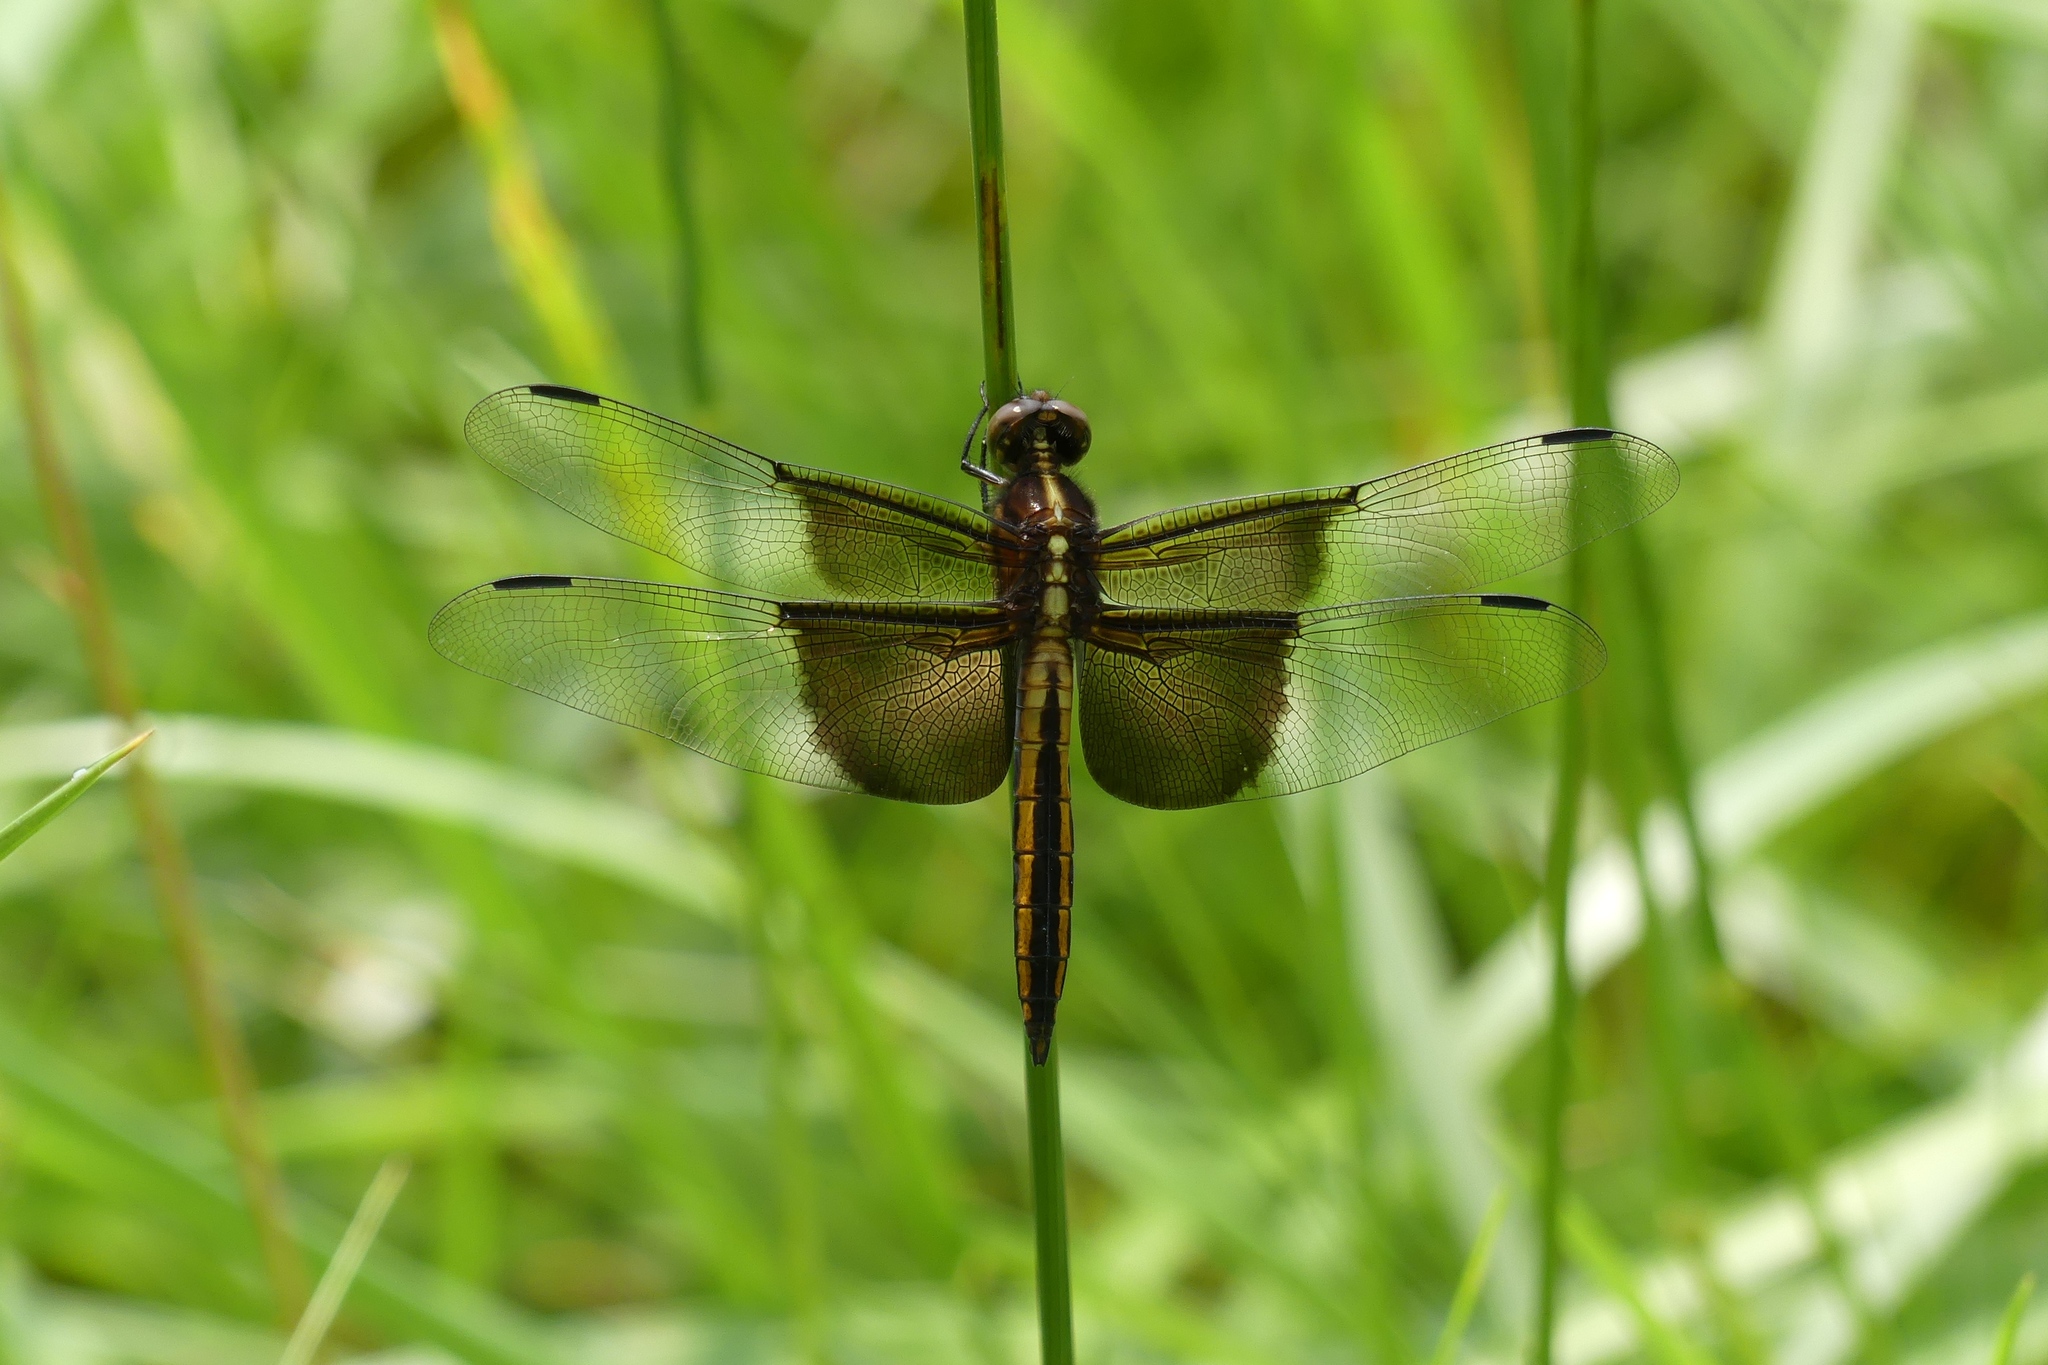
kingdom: Animalia
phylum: Arthropoda
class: Insecta
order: Odonata
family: Libellulidae
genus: Libellula
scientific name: Libellula luctuosa
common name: Widow skimmer
